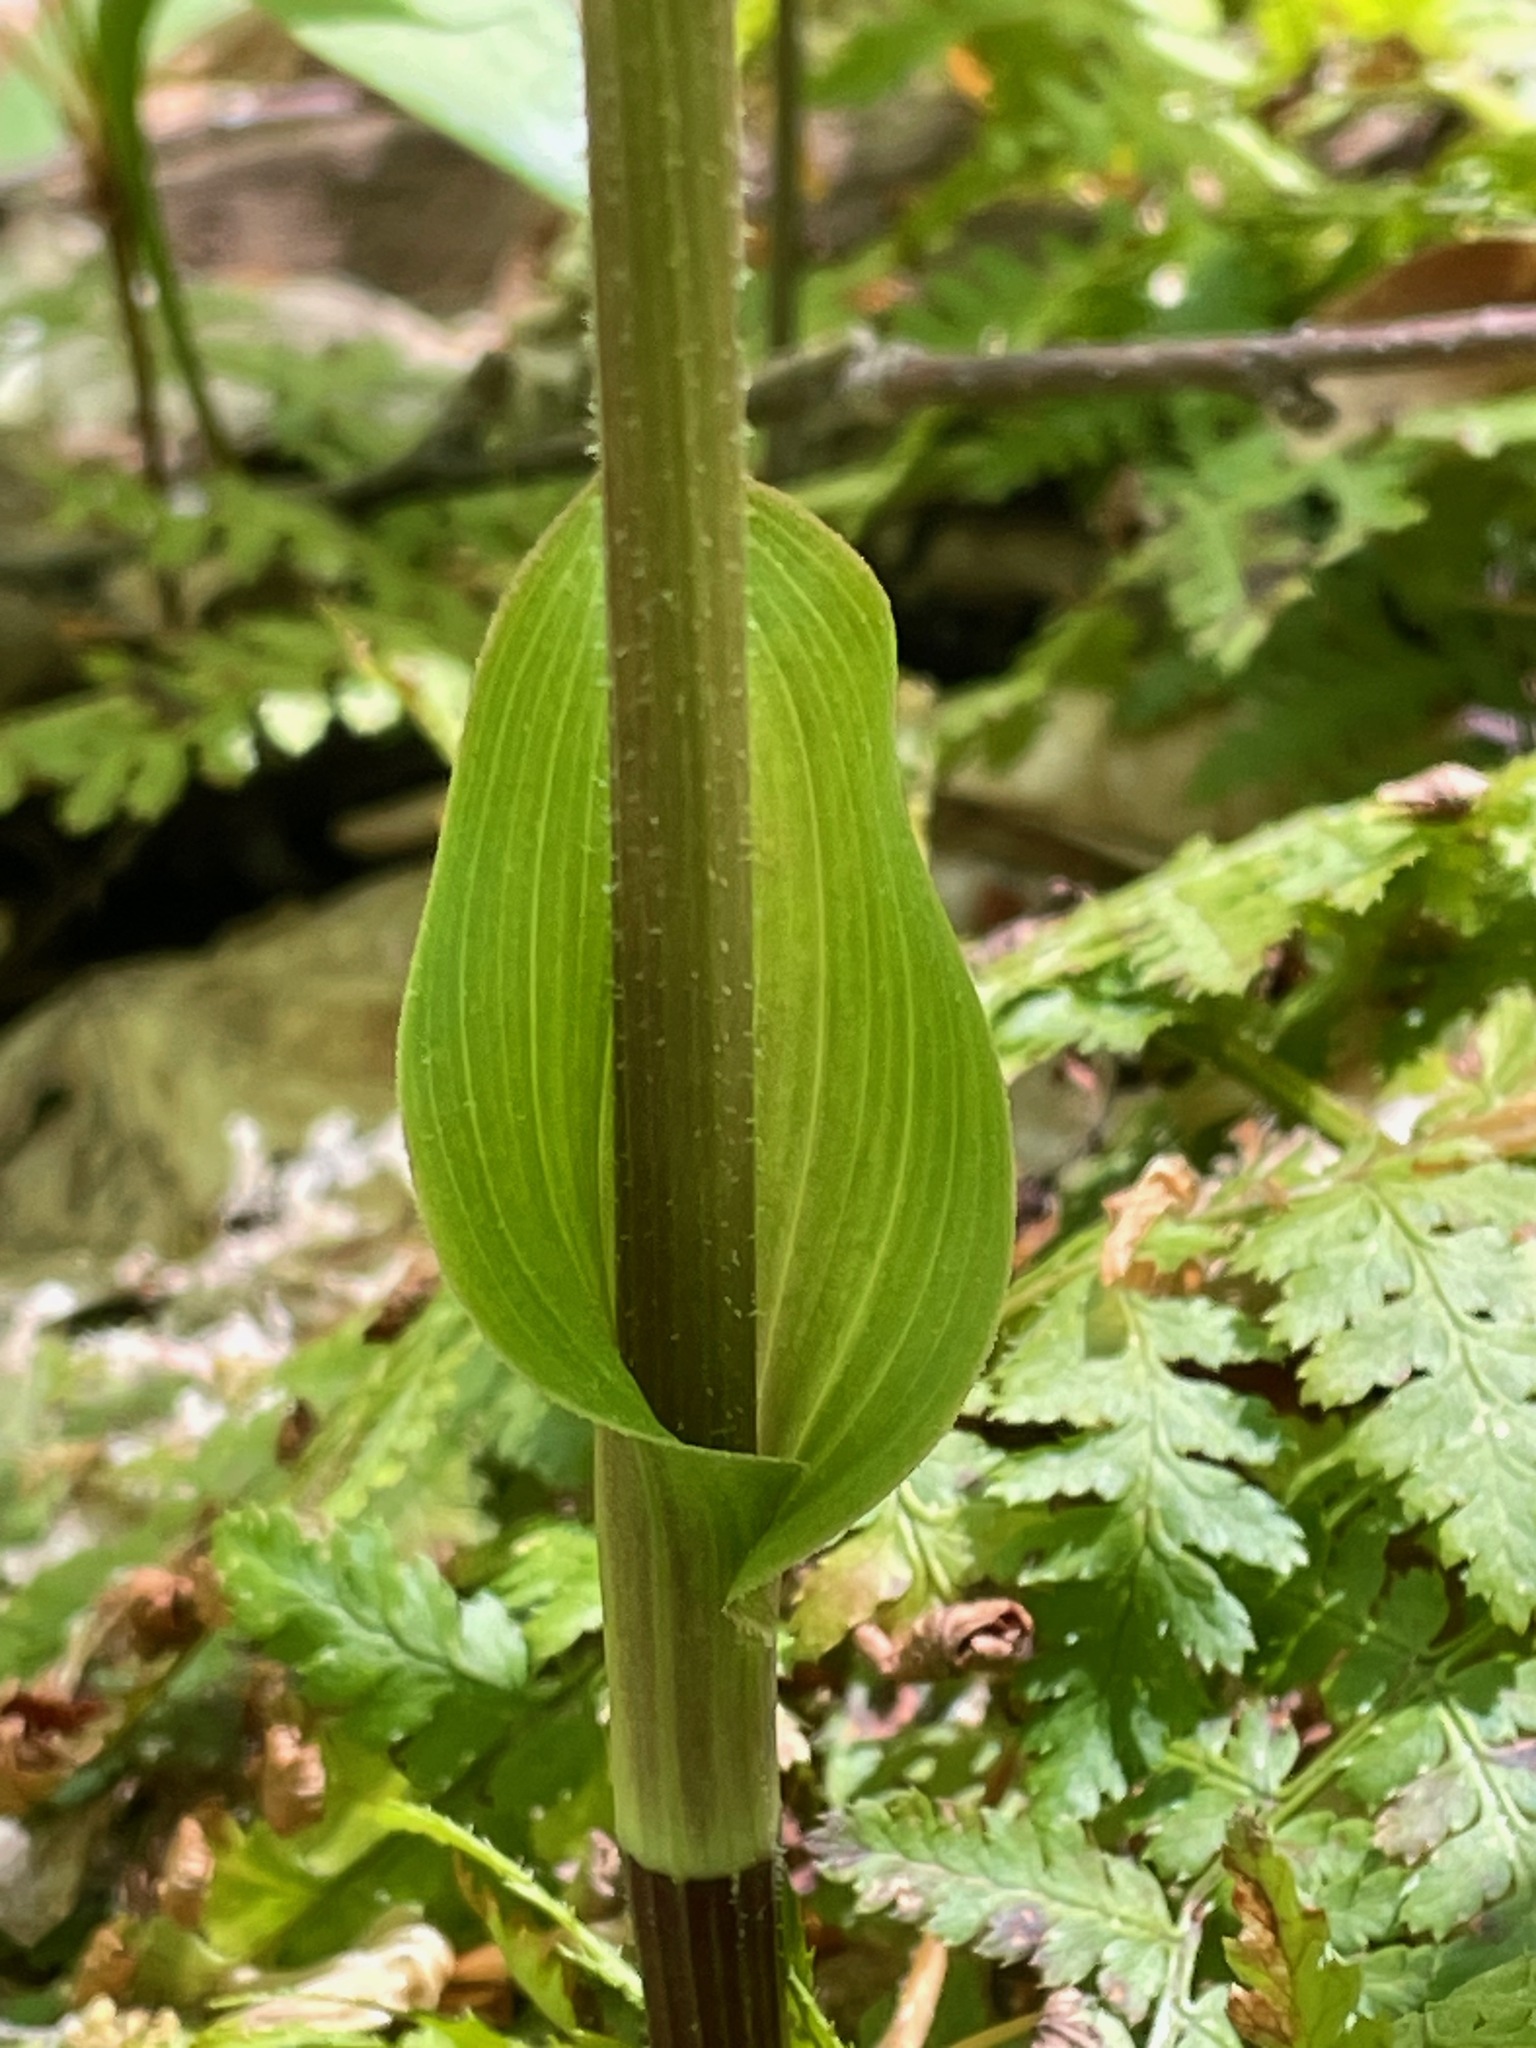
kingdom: Plantae
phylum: Tracheophyta
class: Liliopsida
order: Liliales
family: Liliaceae
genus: Streptopus
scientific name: Streptopus lanceolatus
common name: Rose mandarin
